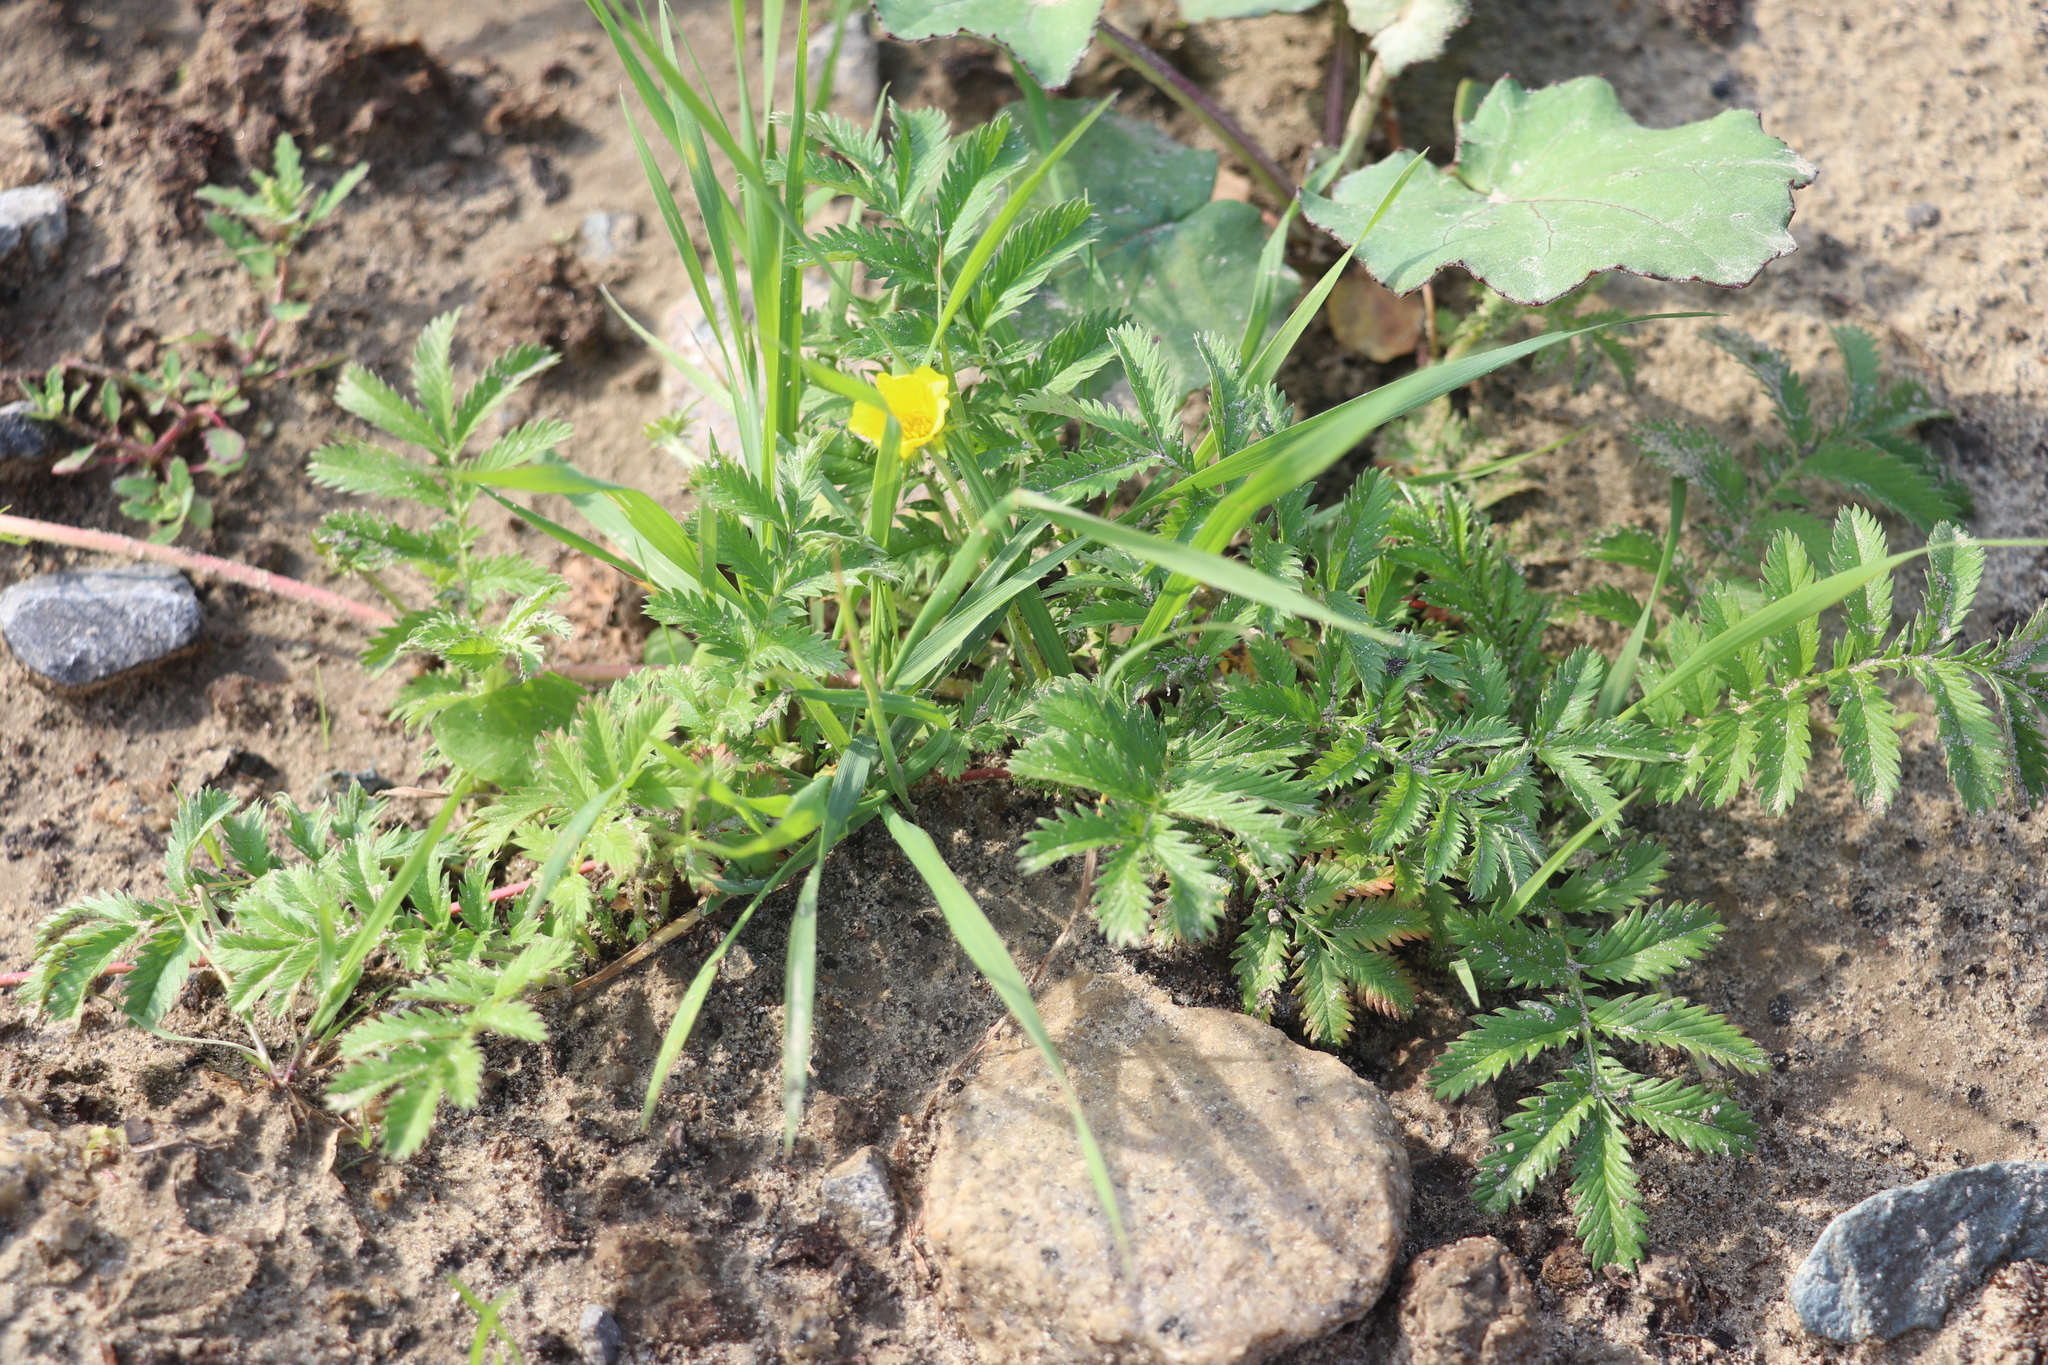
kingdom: Plantae
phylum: Tracheophyta
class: Magnoliopsida
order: Rosales
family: Rosaceae
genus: Argentina
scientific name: Argentina anserina
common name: Common silverweed
